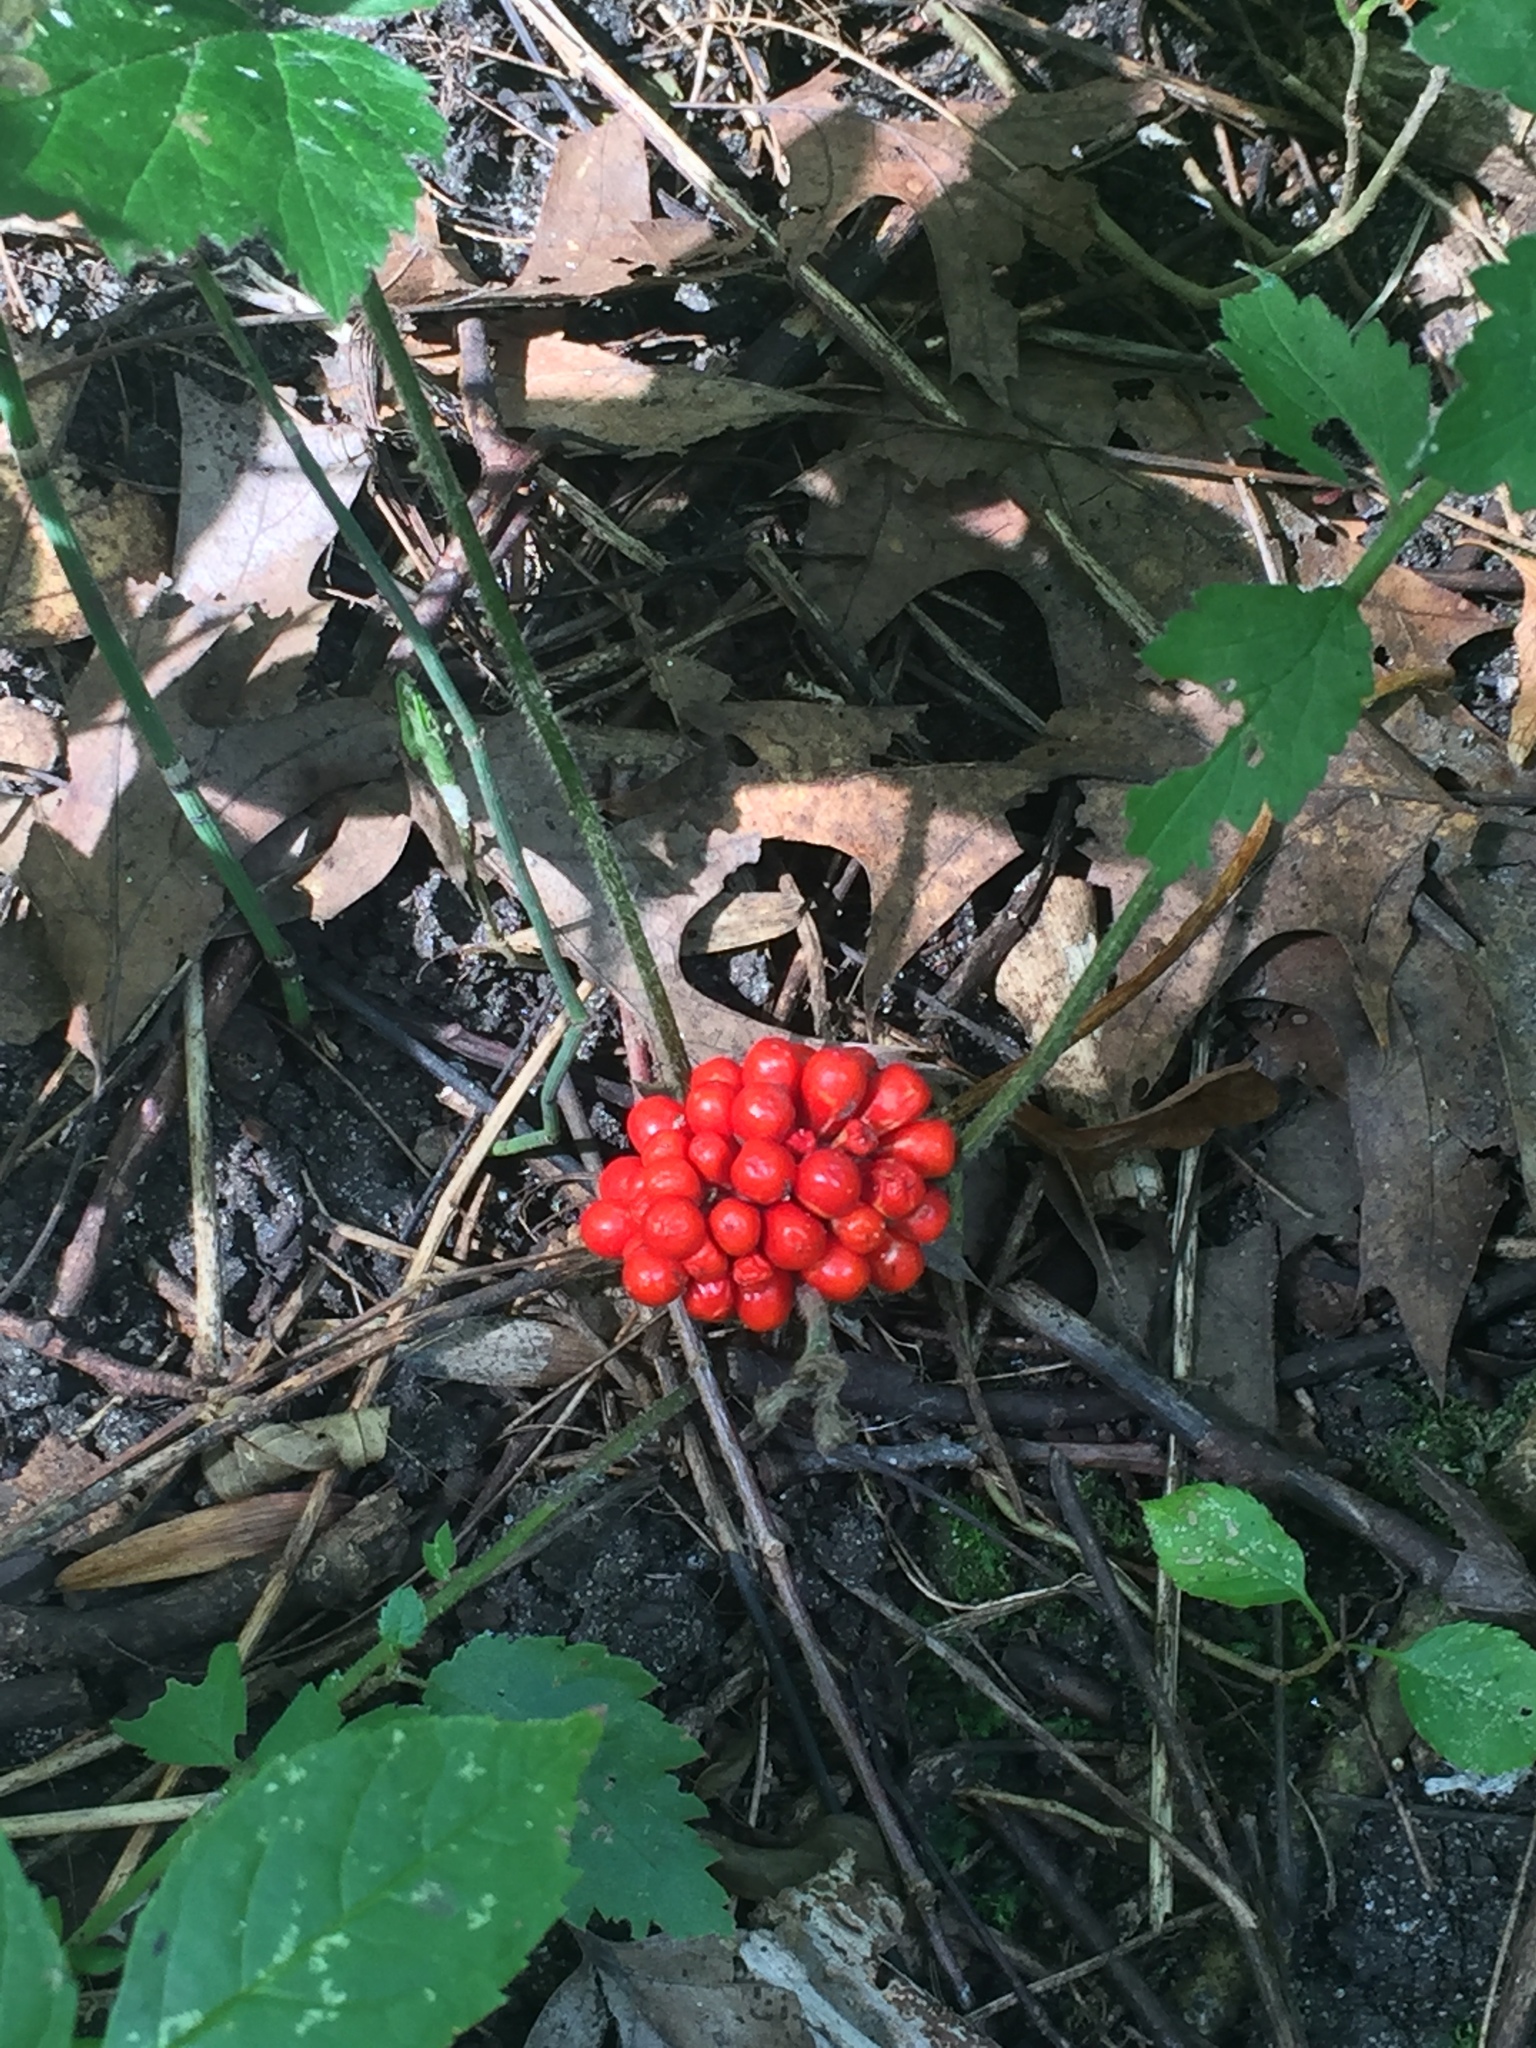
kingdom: Plantae
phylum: Tracheophyta
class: Liliopsida
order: Alismatales
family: Araceae
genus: Arisaema
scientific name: Arisaema triphyllum
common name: Jack-in-the-pulpit
